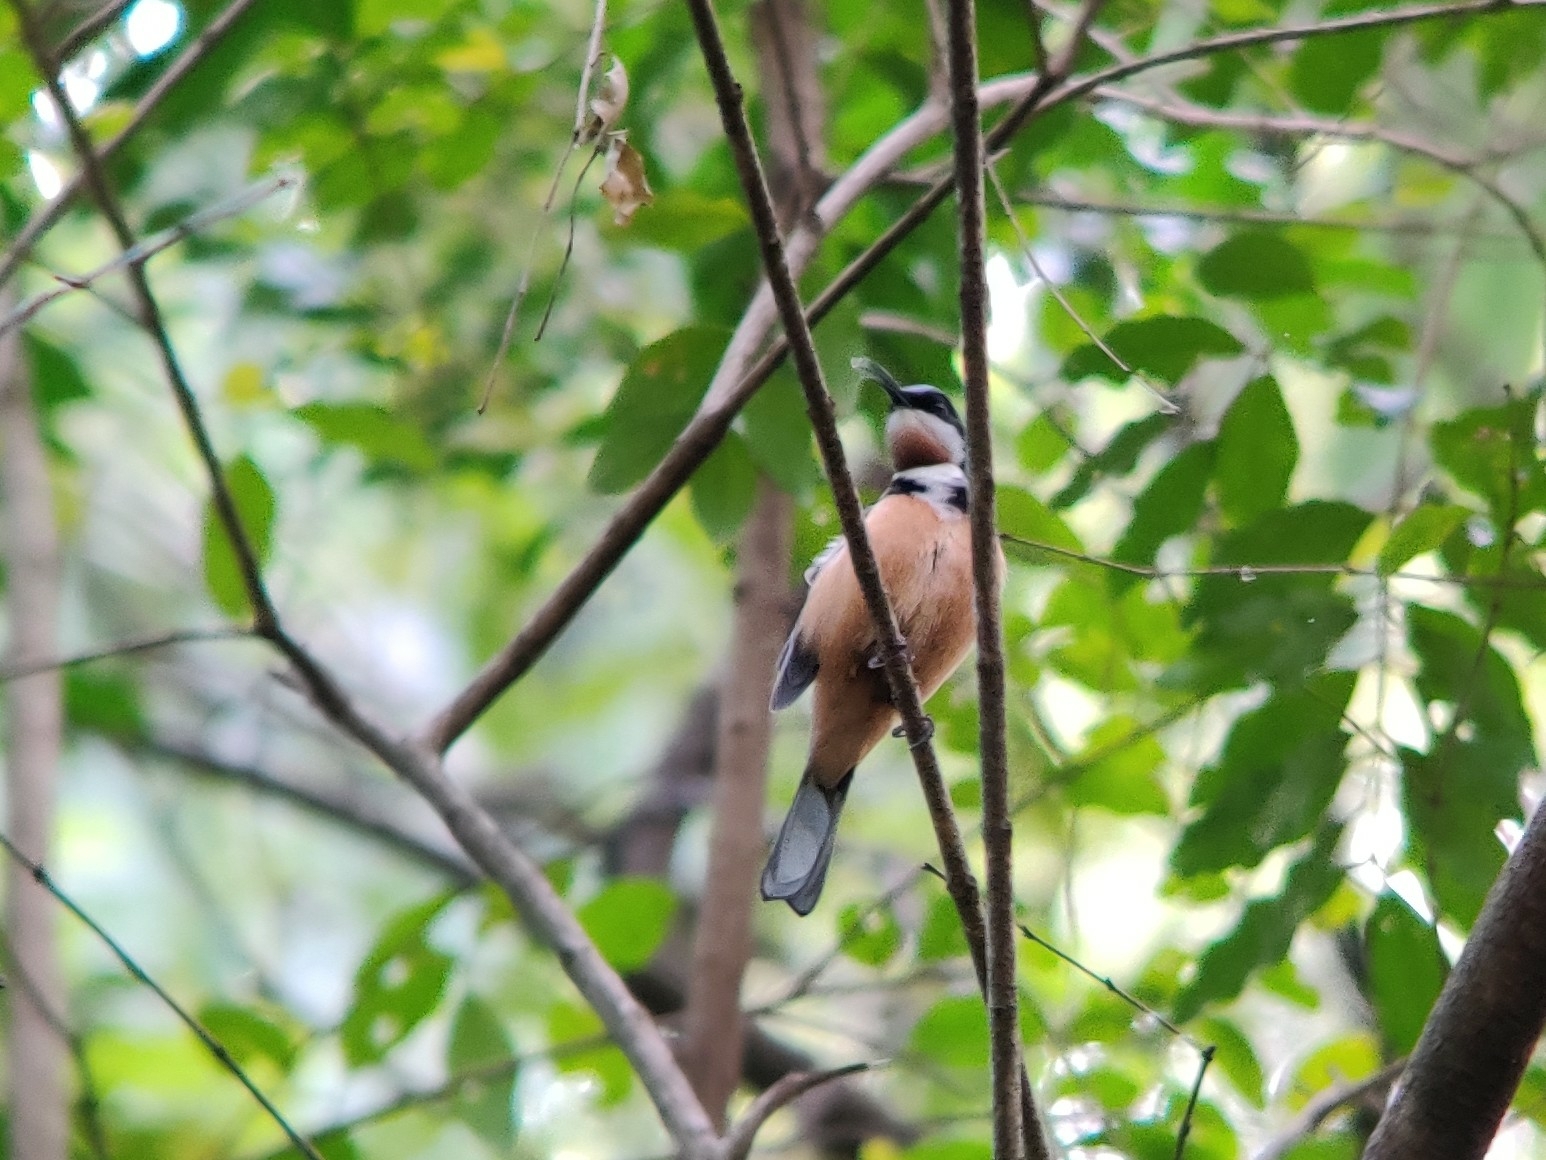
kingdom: Animalia
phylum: Chordata
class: Aves
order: Passeriformes
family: Meliphagidae
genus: Acanthorhynchus
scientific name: Acanthorhynchus tenuirostris
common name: Eastern spinebill
